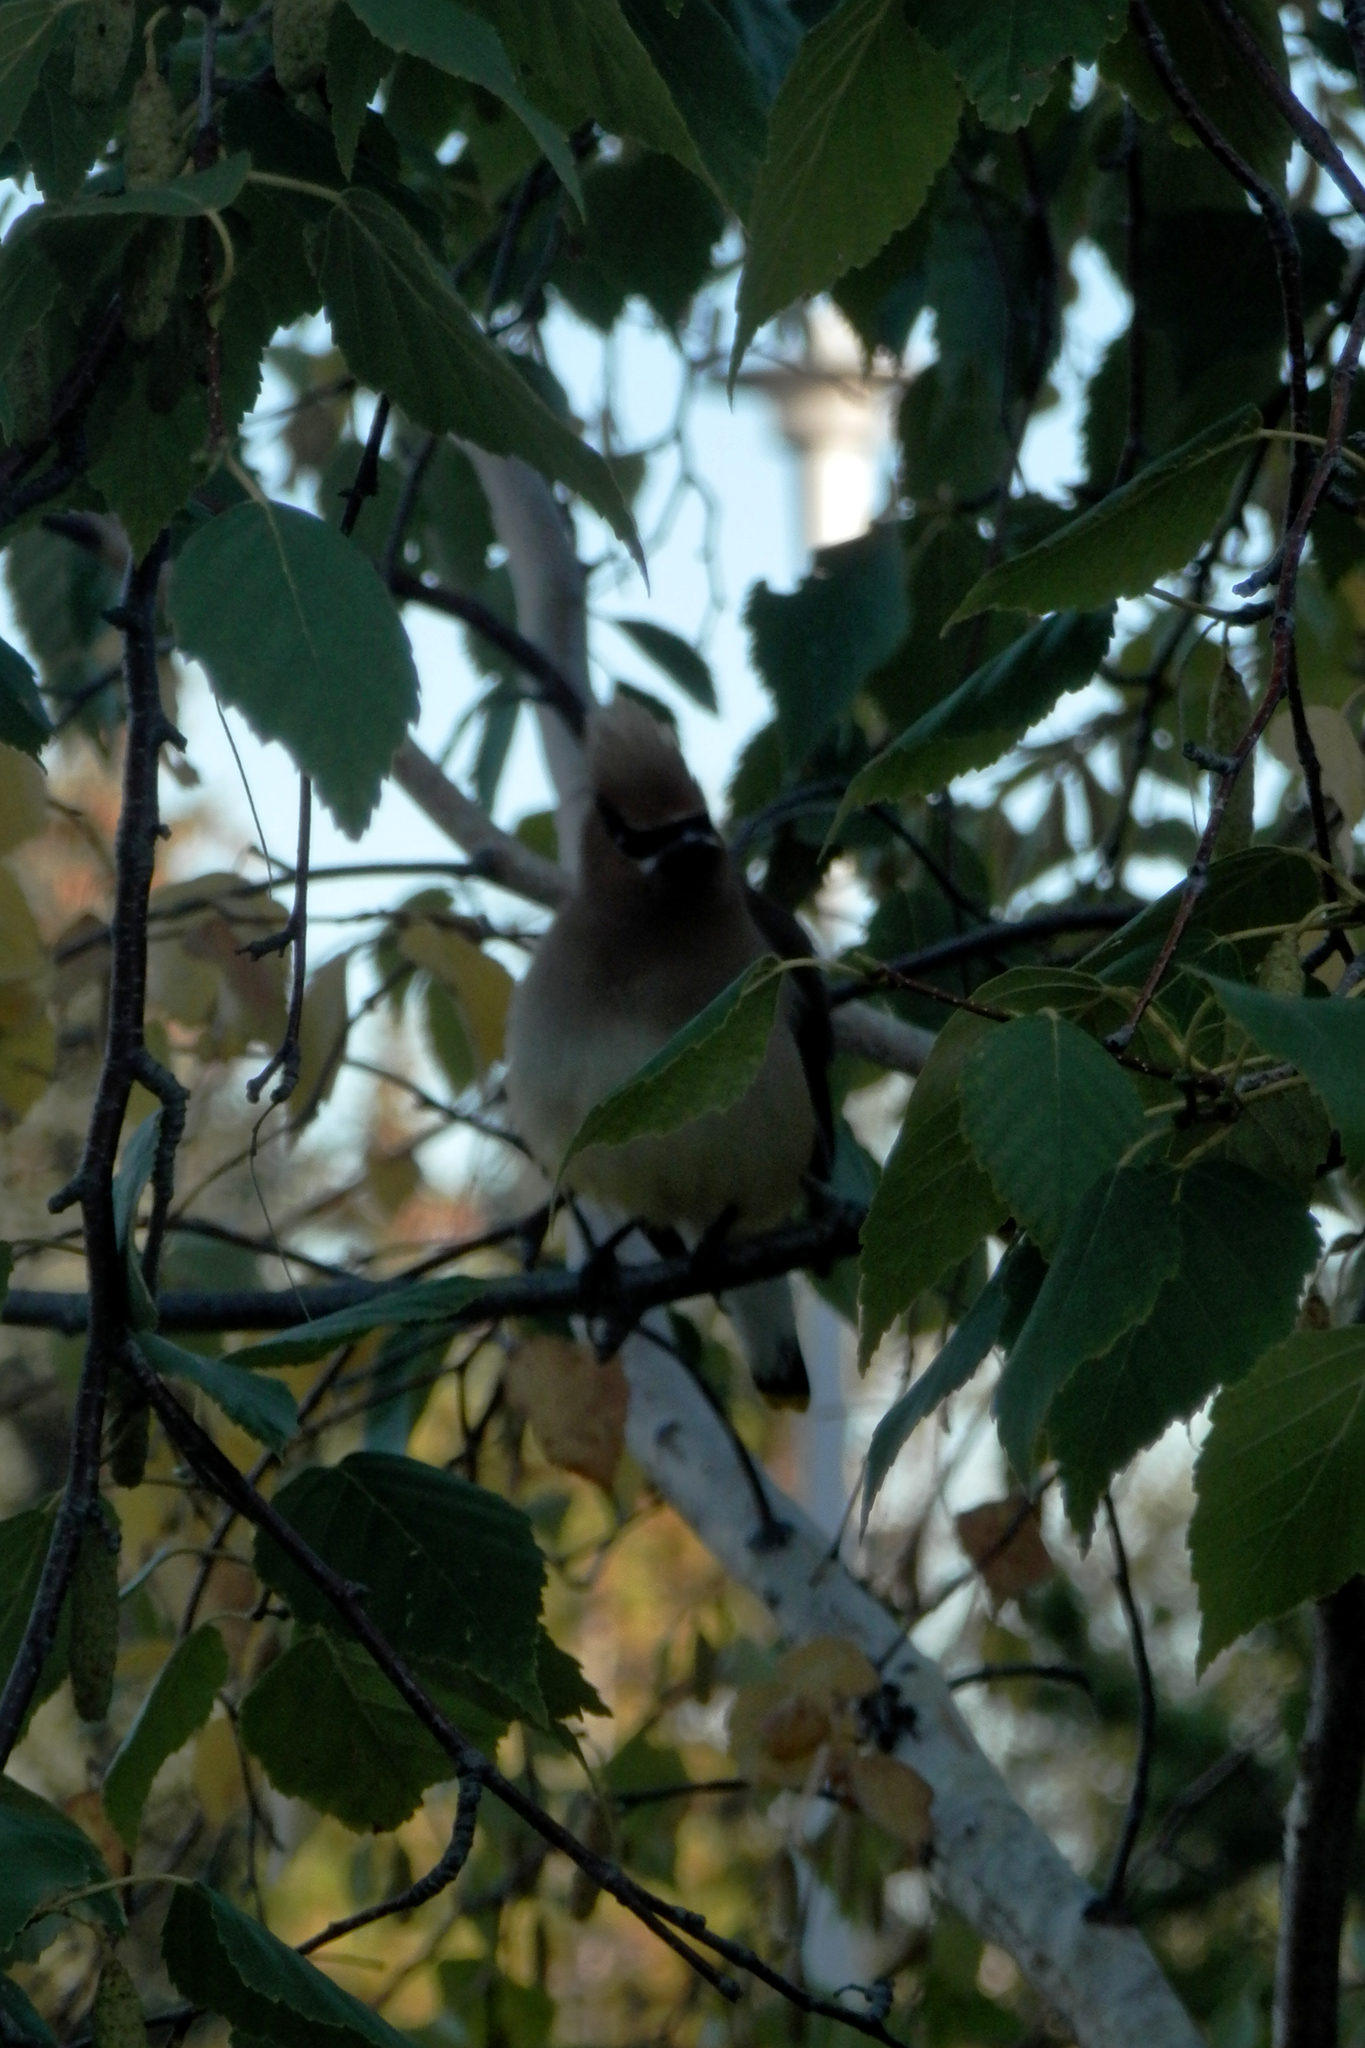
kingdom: Animalia
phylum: Chordata
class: Aves
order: Passeriformes
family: Bombycillidae
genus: Bombycilla
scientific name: Bombycilla cedrorum
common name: Cedar waxwing
